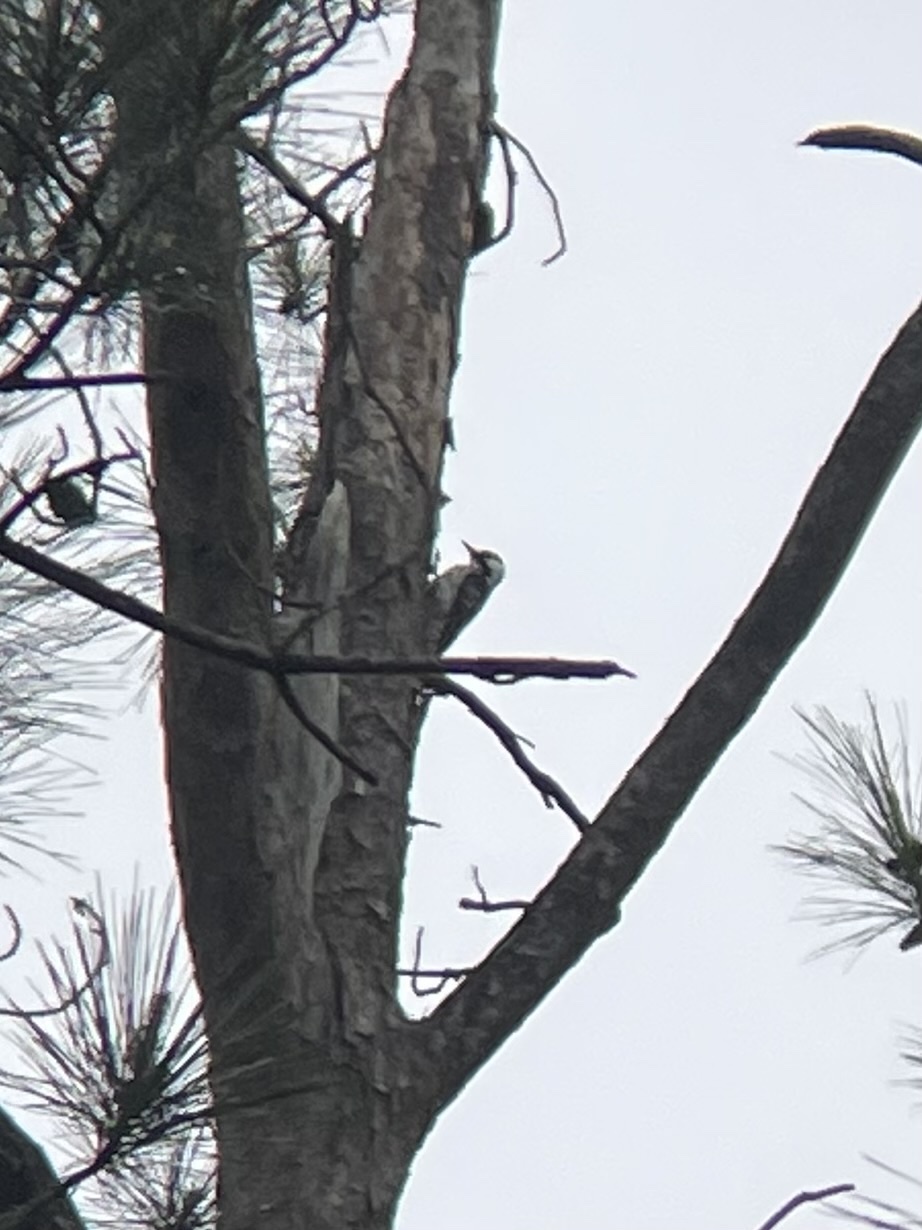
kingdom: Animalia
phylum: Chordata
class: Aves
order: Piciformes
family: Picidae
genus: Leuconotopicus
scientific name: Leuconotopicus borealis
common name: Red-cockaded woodpecker
